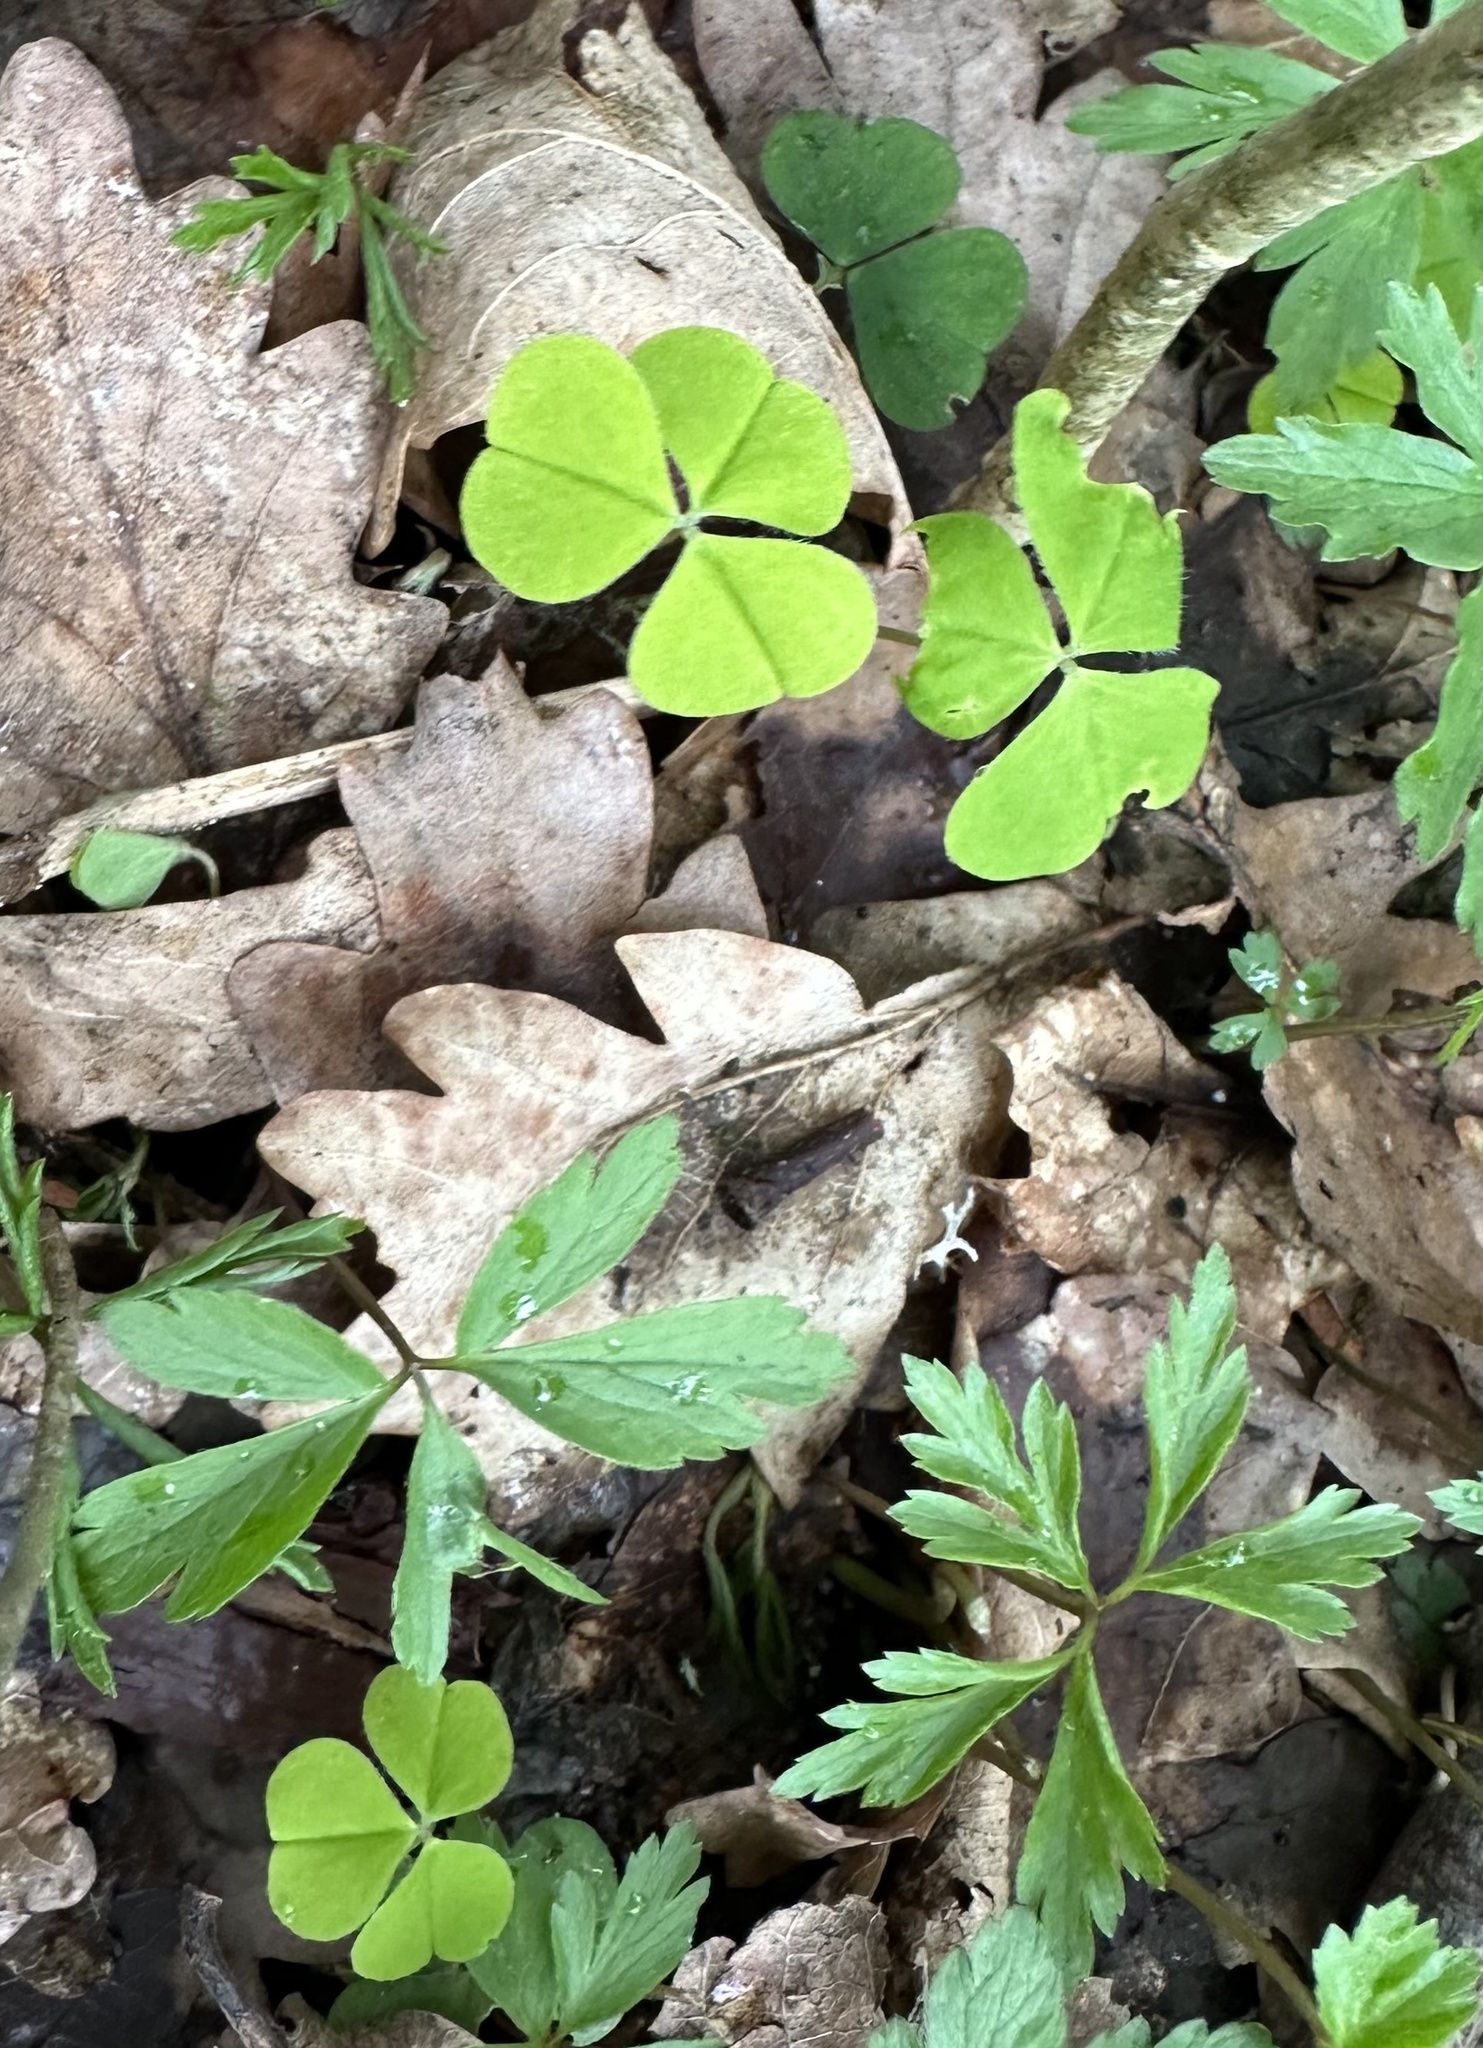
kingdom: Plantae
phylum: Tracheophyta
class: Magnoliopsida
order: Oxalidales
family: Oxalidaceae
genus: Oxalis
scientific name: Oxalis acetosella
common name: Wood-sorrel
